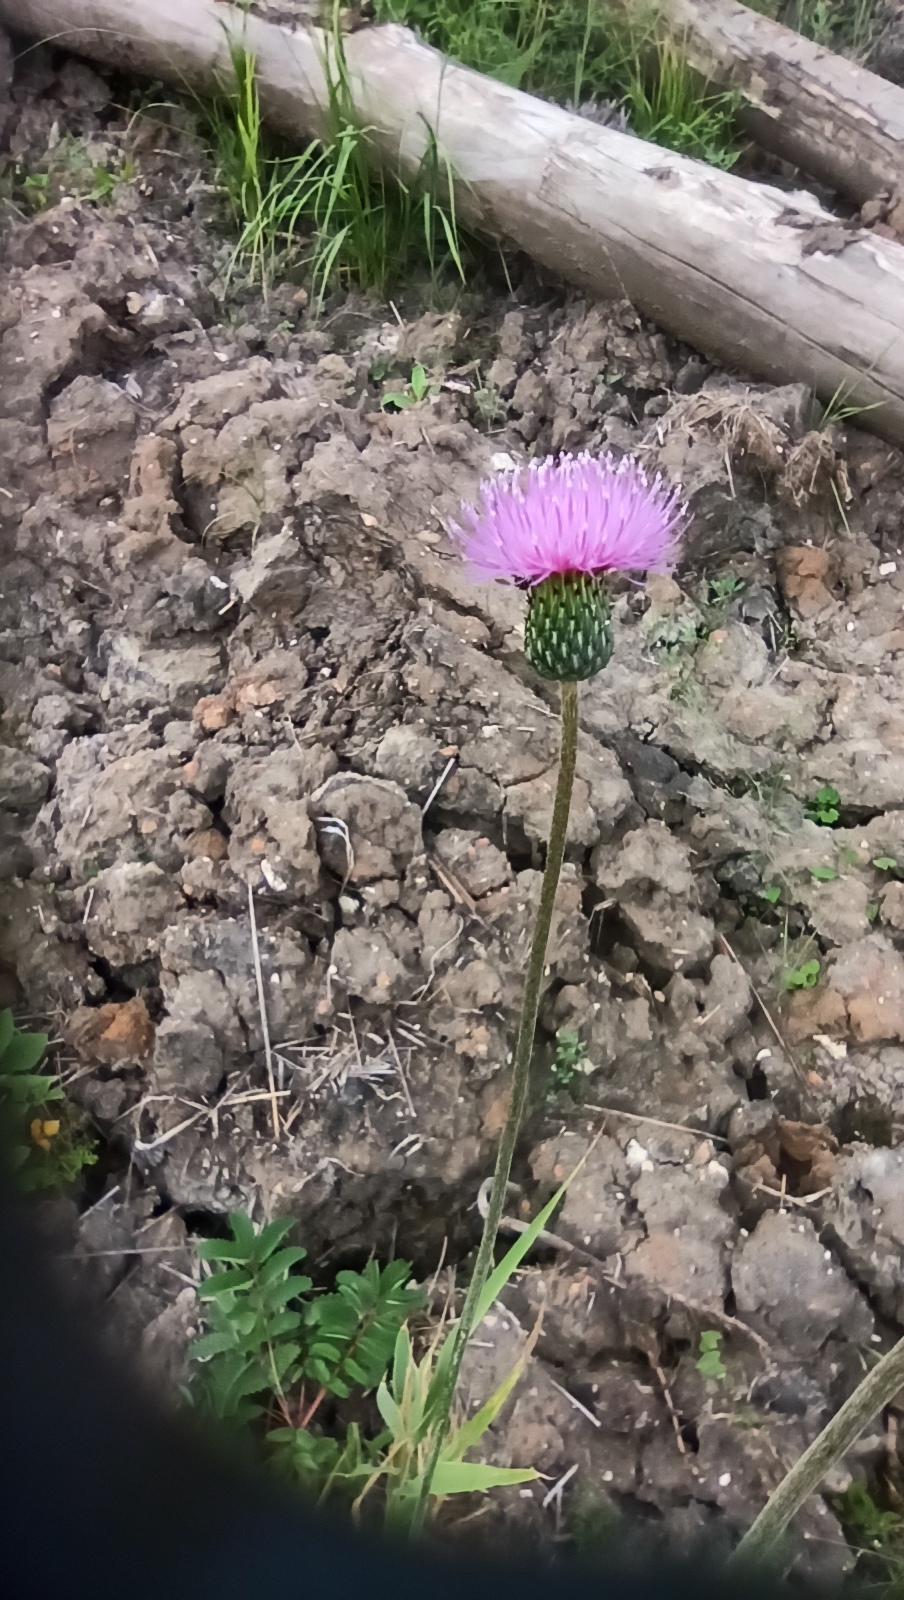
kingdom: Plantae
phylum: Tracheophyta
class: Magnoliopsida
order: Asterales
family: Asteraceae
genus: Cirsium
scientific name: Cirsium canum
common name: Queen anne's thistle
